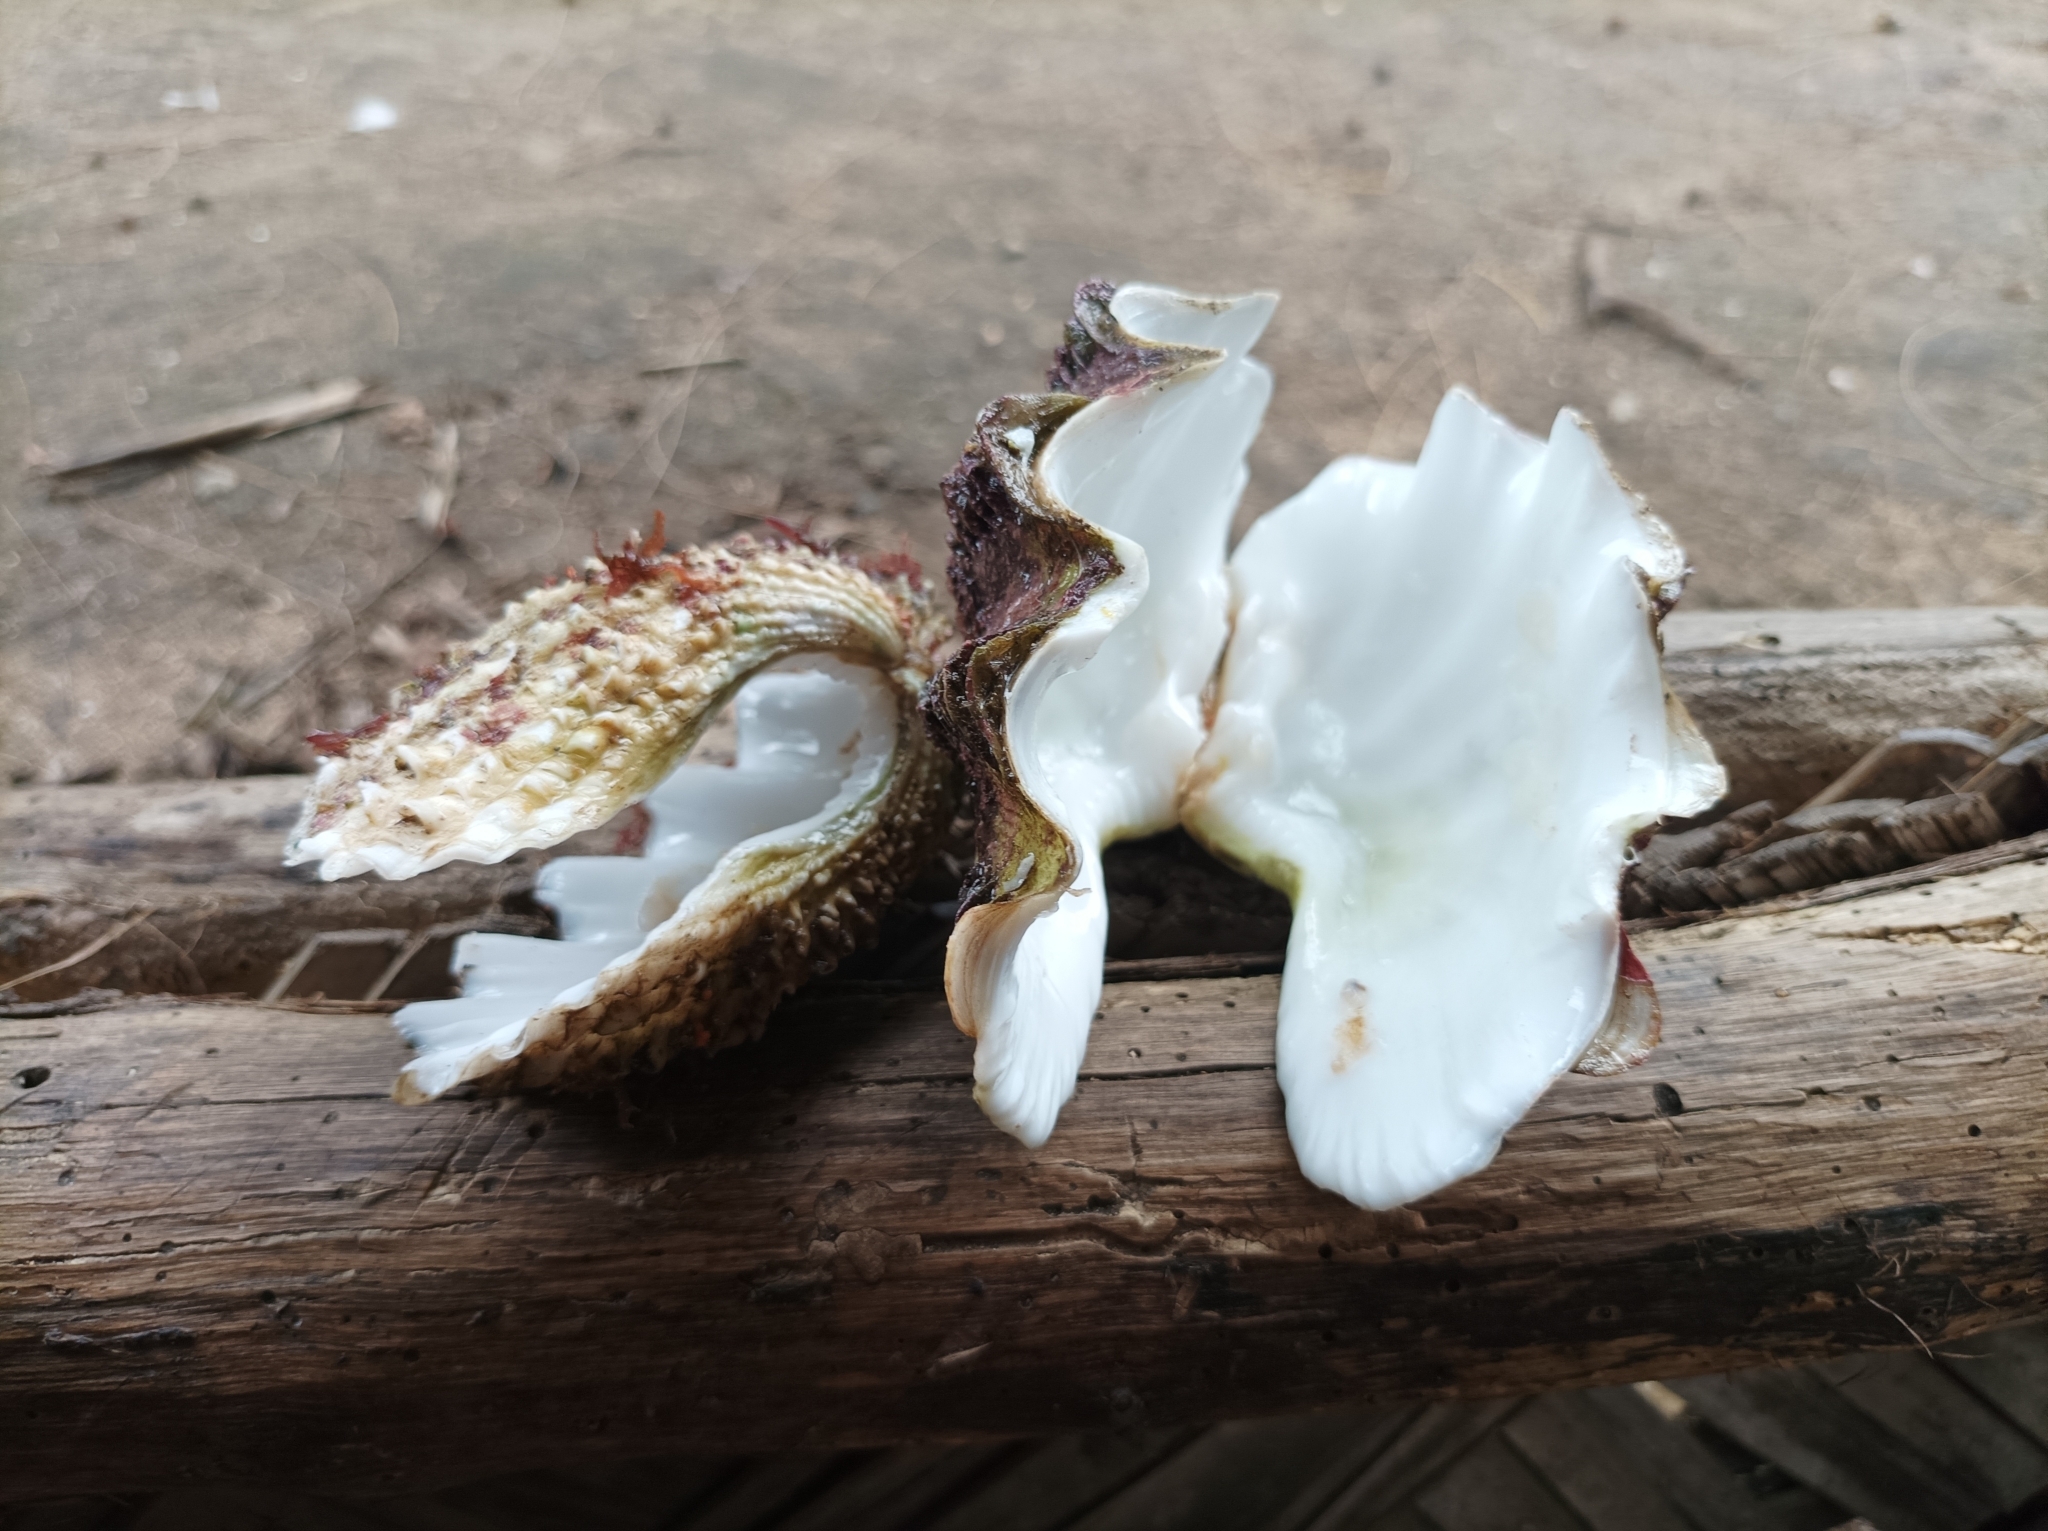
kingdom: Animalia
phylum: Mollusca
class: Bivalvia
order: Cardiida
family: Cardiidae
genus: Tridacna
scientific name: Tridacna maxima
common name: Small giant clam
